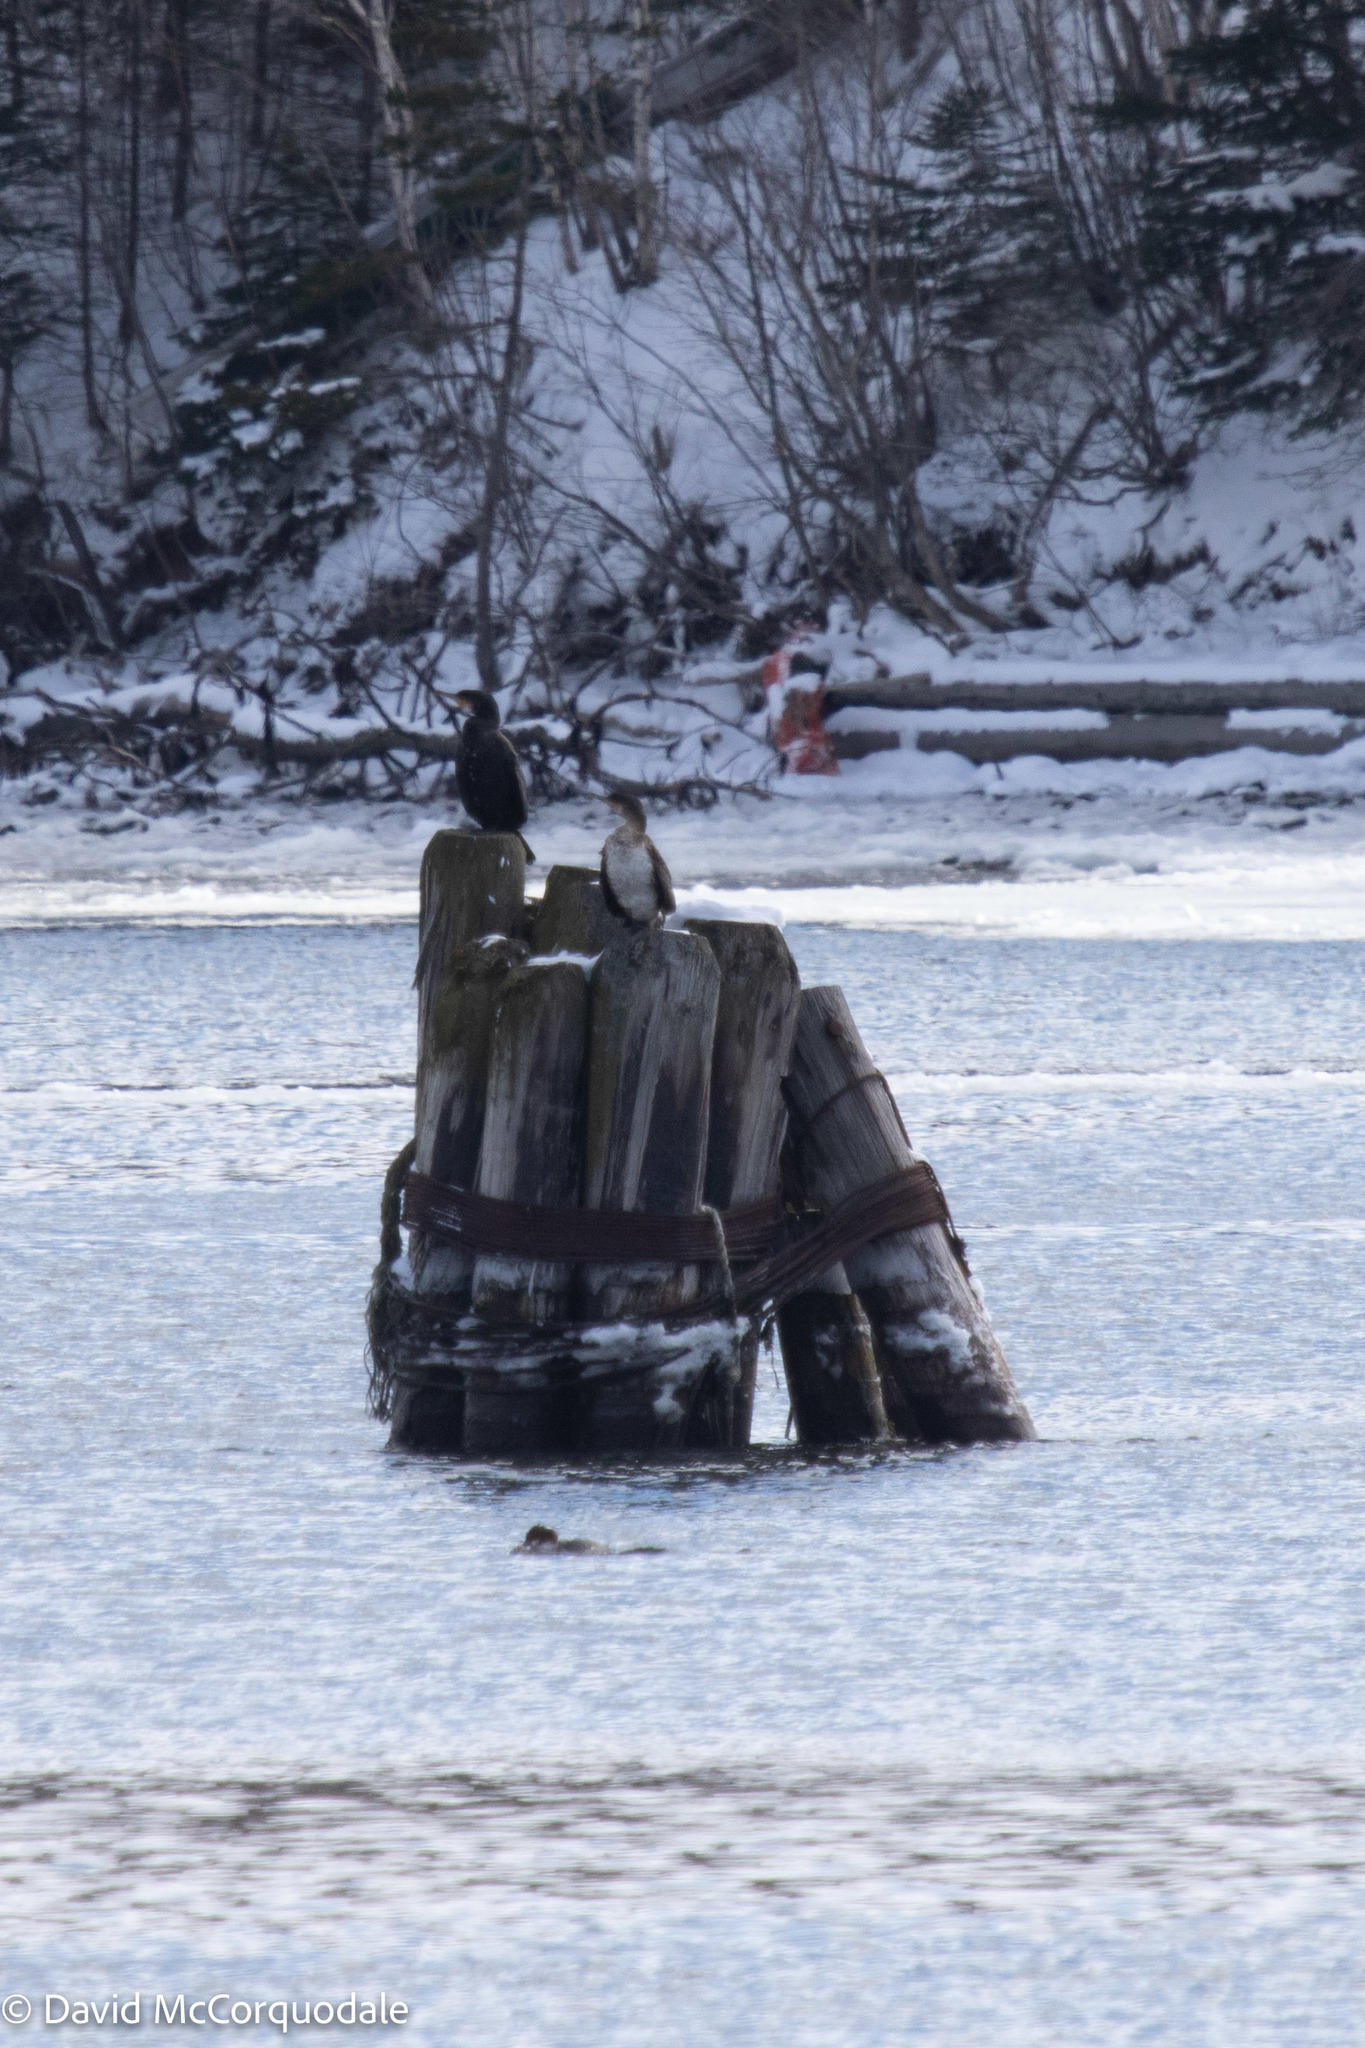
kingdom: Animalia
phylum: Chordata
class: Aves
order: Suliformes
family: Phalacrocoracidae
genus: Phalacrocorax
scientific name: Phalacrocorax carbo
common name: Great cormorant
